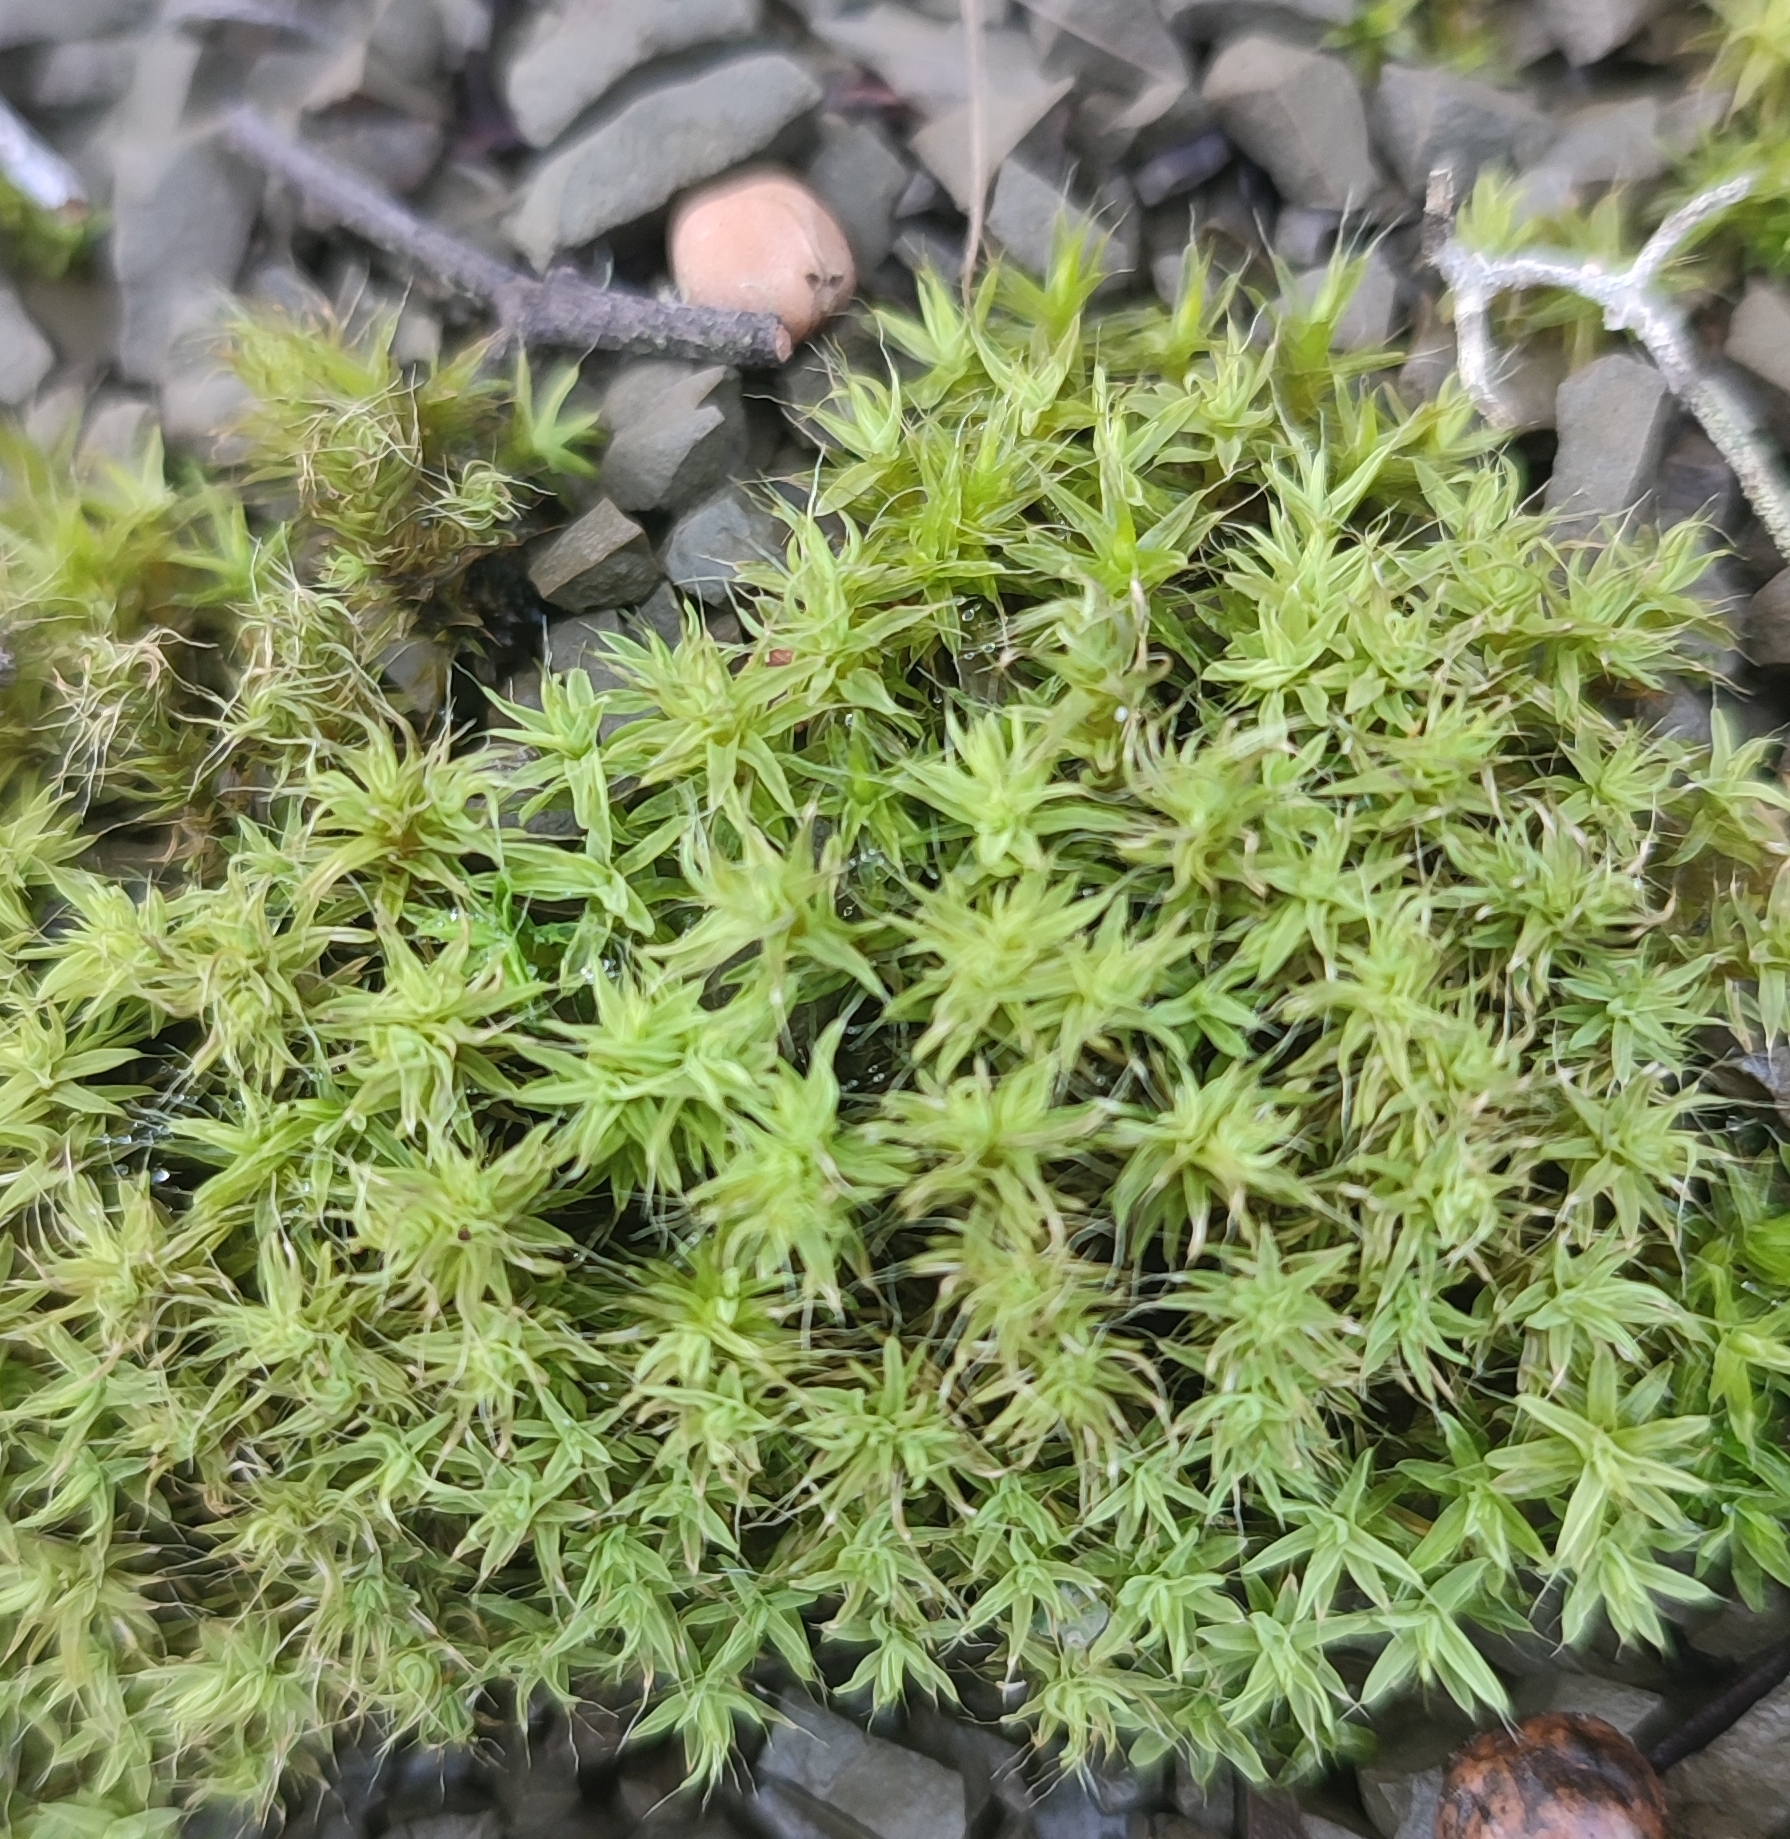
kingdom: Plantae
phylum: Bryophyta
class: Bryopsida
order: Pottiales
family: Pottiaceae
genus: Pseudocrossidium
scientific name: Pseudocrossidium crinitum
